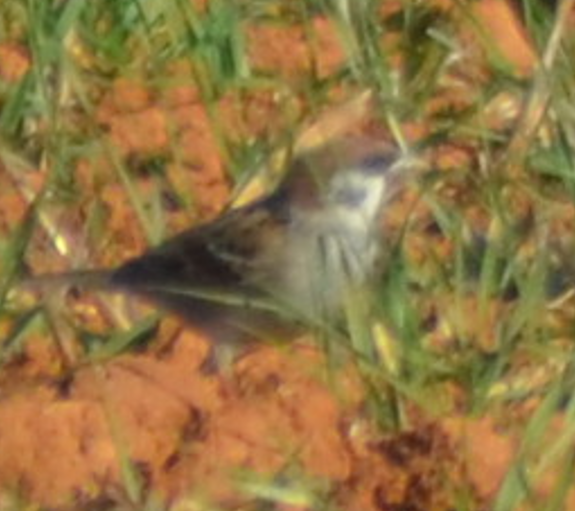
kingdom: Animalia
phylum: Chordata
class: Aves
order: Passeriformes
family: Passeridae
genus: Passer
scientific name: Passer montanus
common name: Eurasian tree sparrow
